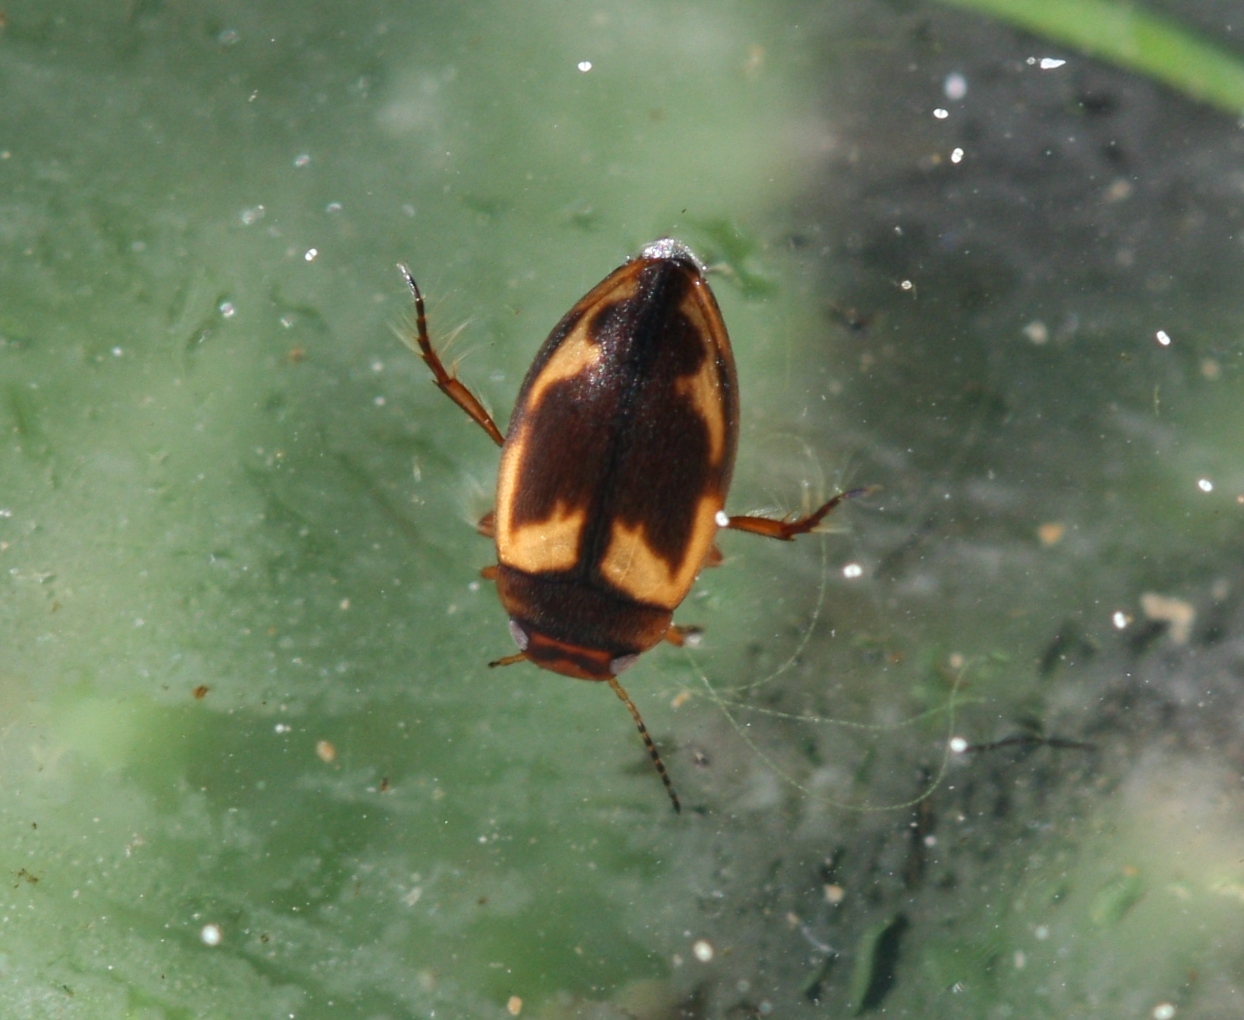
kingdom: Animalia
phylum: Arthropoda
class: Insecta
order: Coleoptera
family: Dytiscidae
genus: Hydroporus
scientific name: Hydroporus palustris
